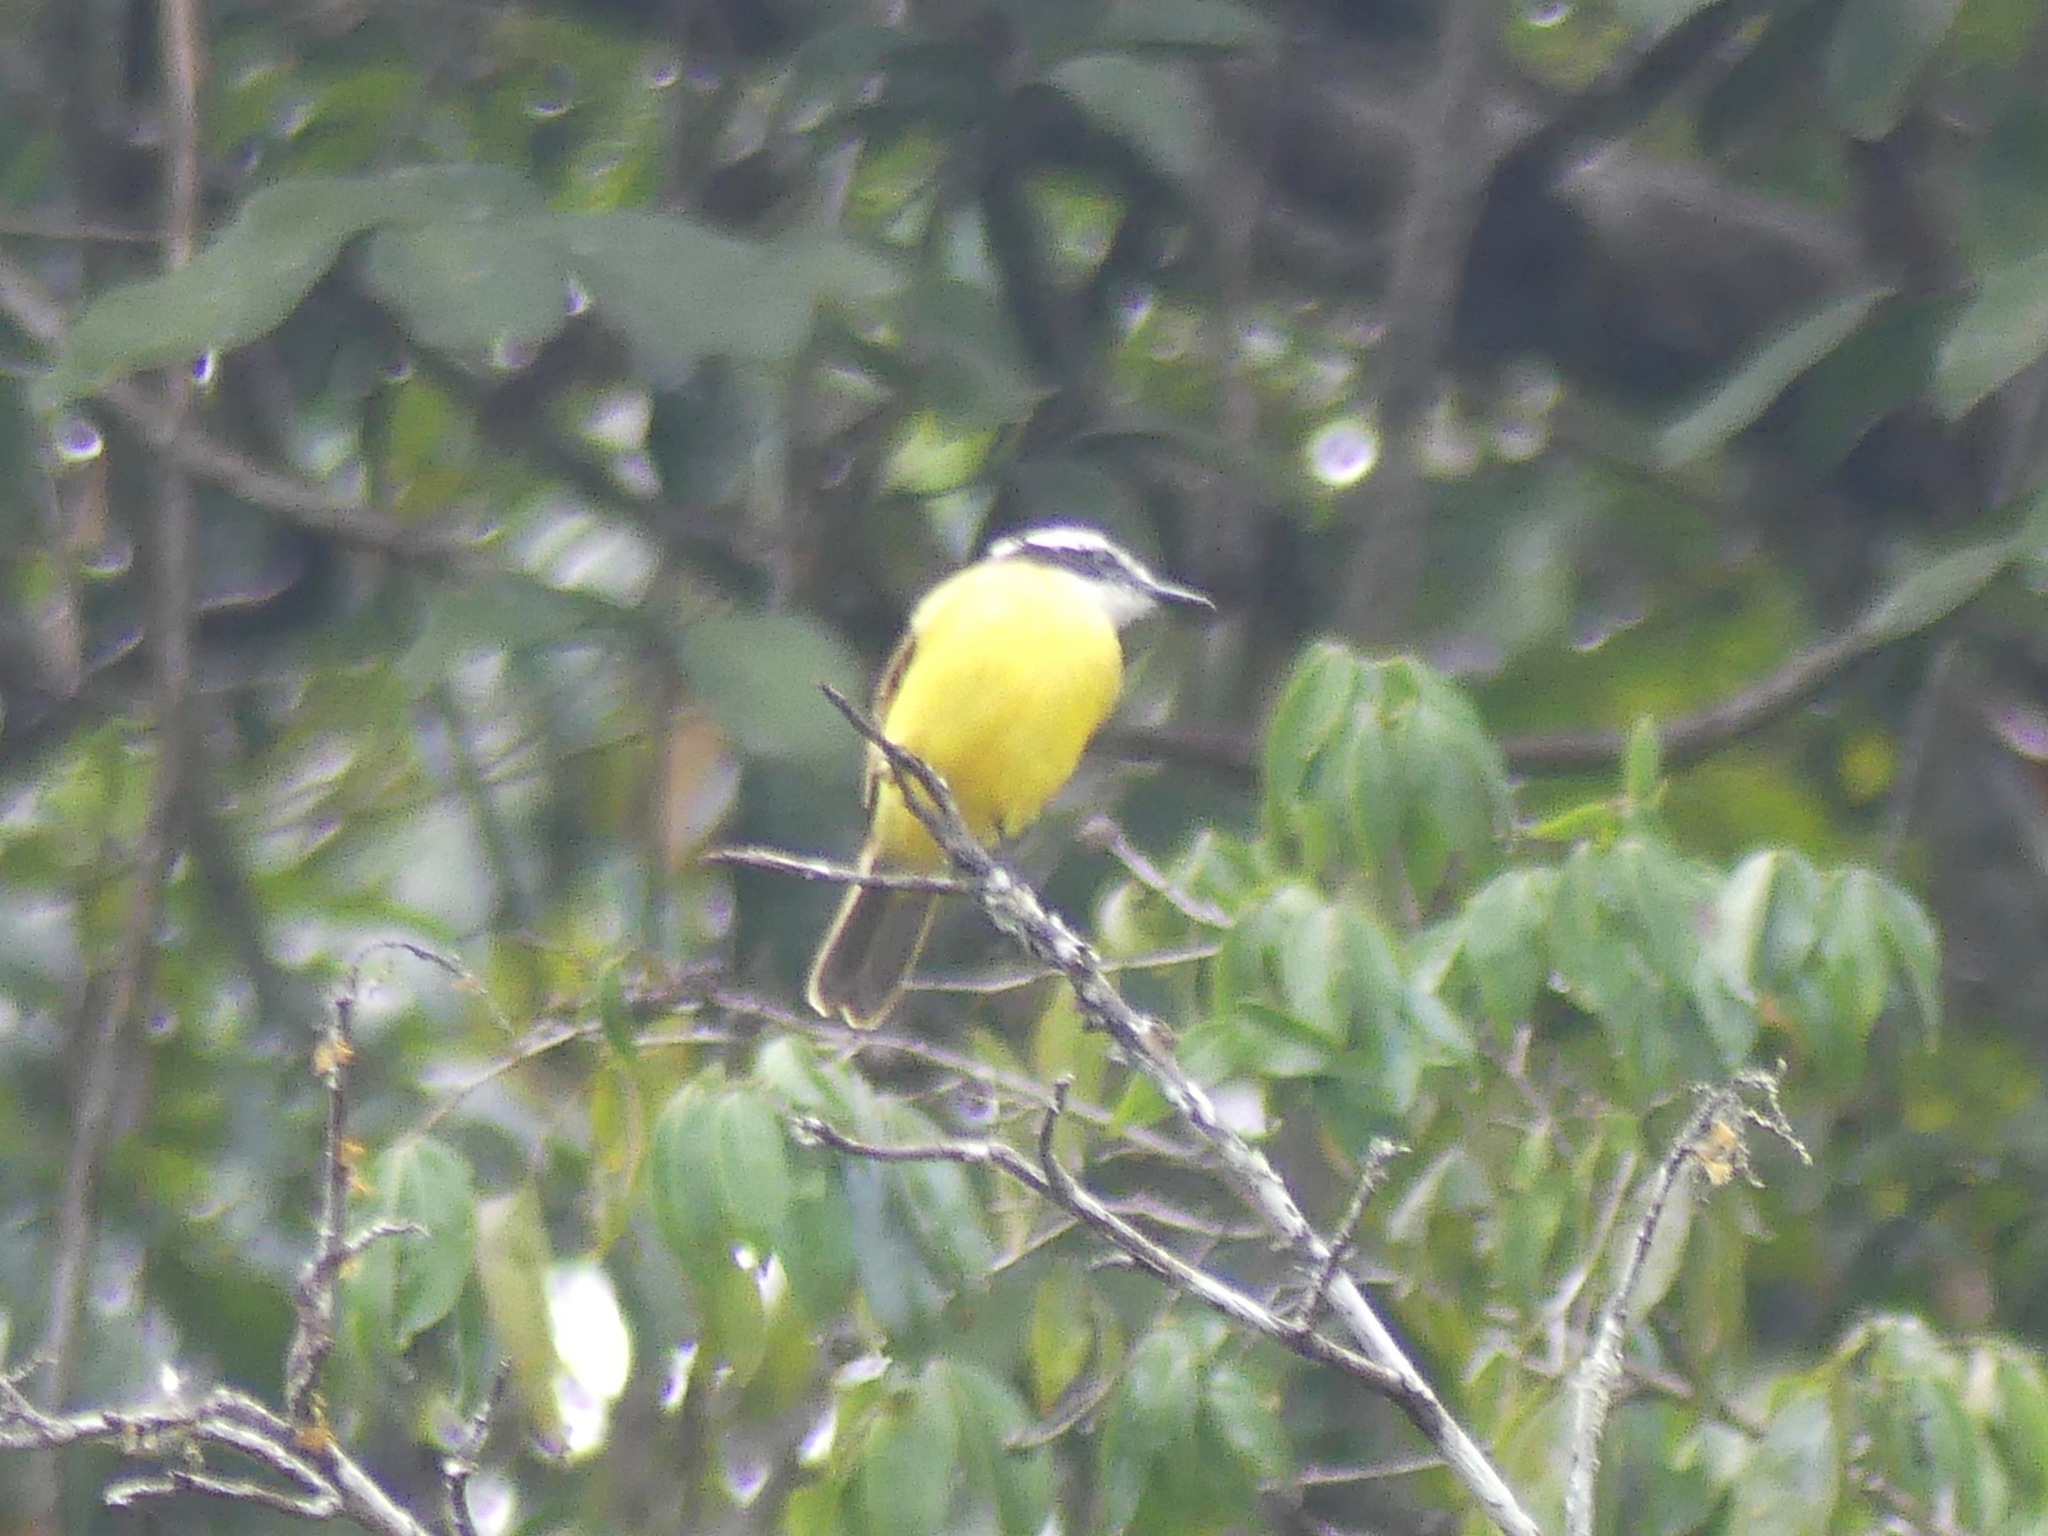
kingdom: Animalia
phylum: Chordata
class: Aves
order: Passeriformes
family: Tyrannidae
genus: Pitangus
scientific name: Pitangus lictor
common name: Lesser kiskadee
